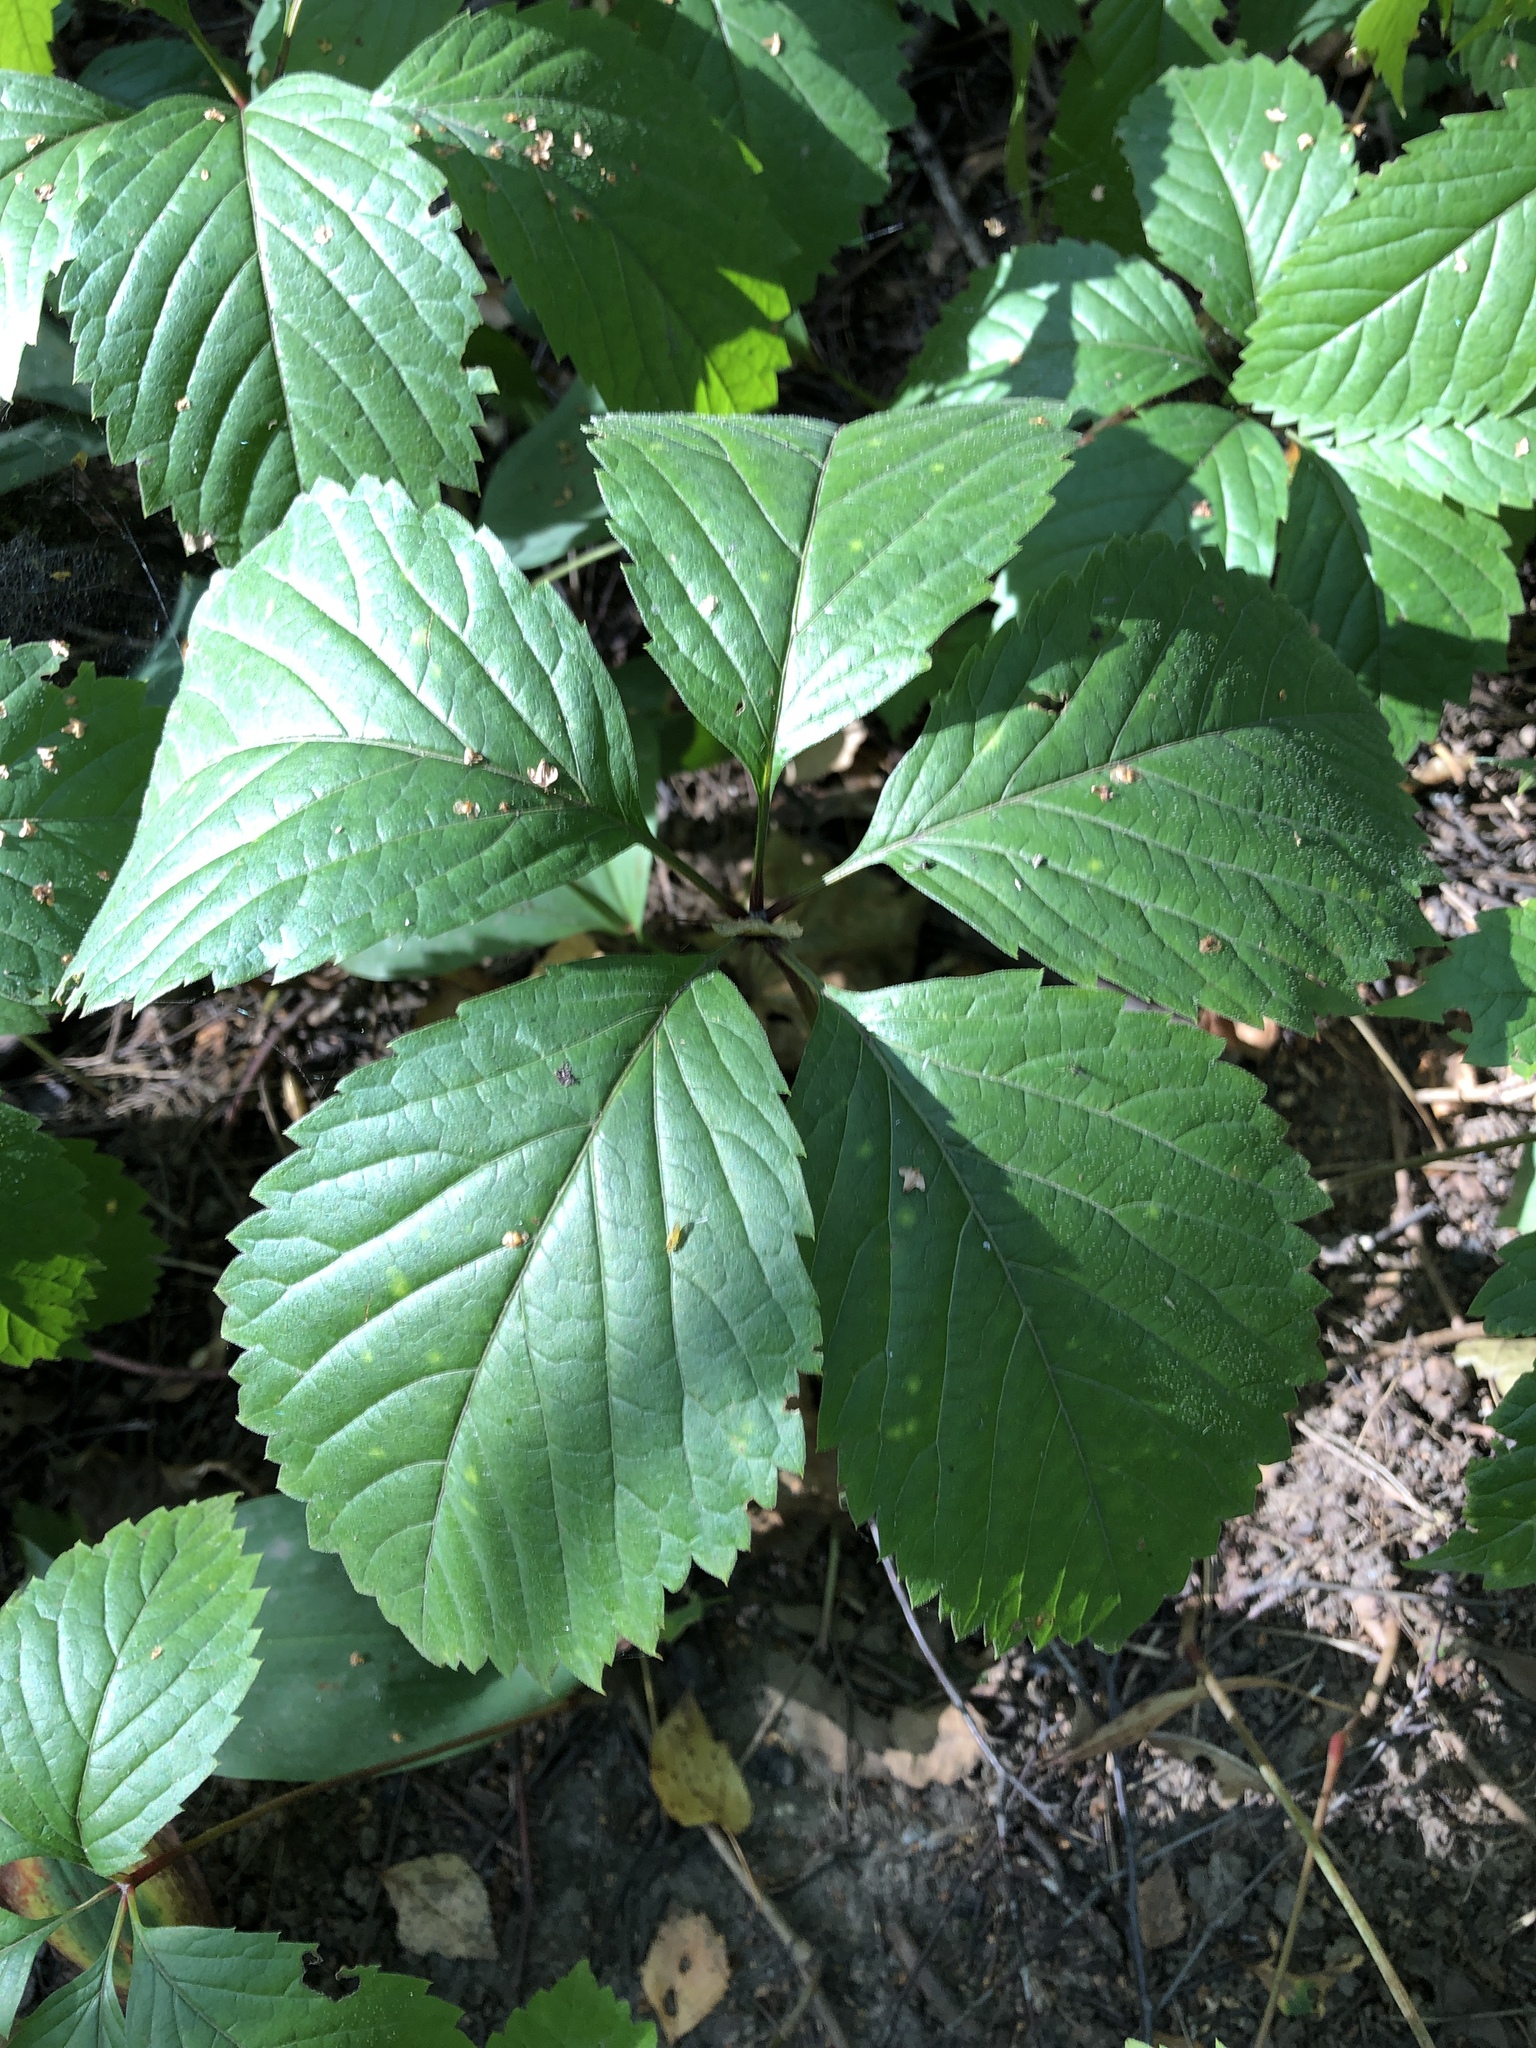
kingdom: Plantae
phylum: Tracheophyta
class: Magnoliopsida
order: Vitales
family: Vitaceae
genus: Parthenocissus
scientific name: Parthenocissus inserta
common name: False virginia-creeper
